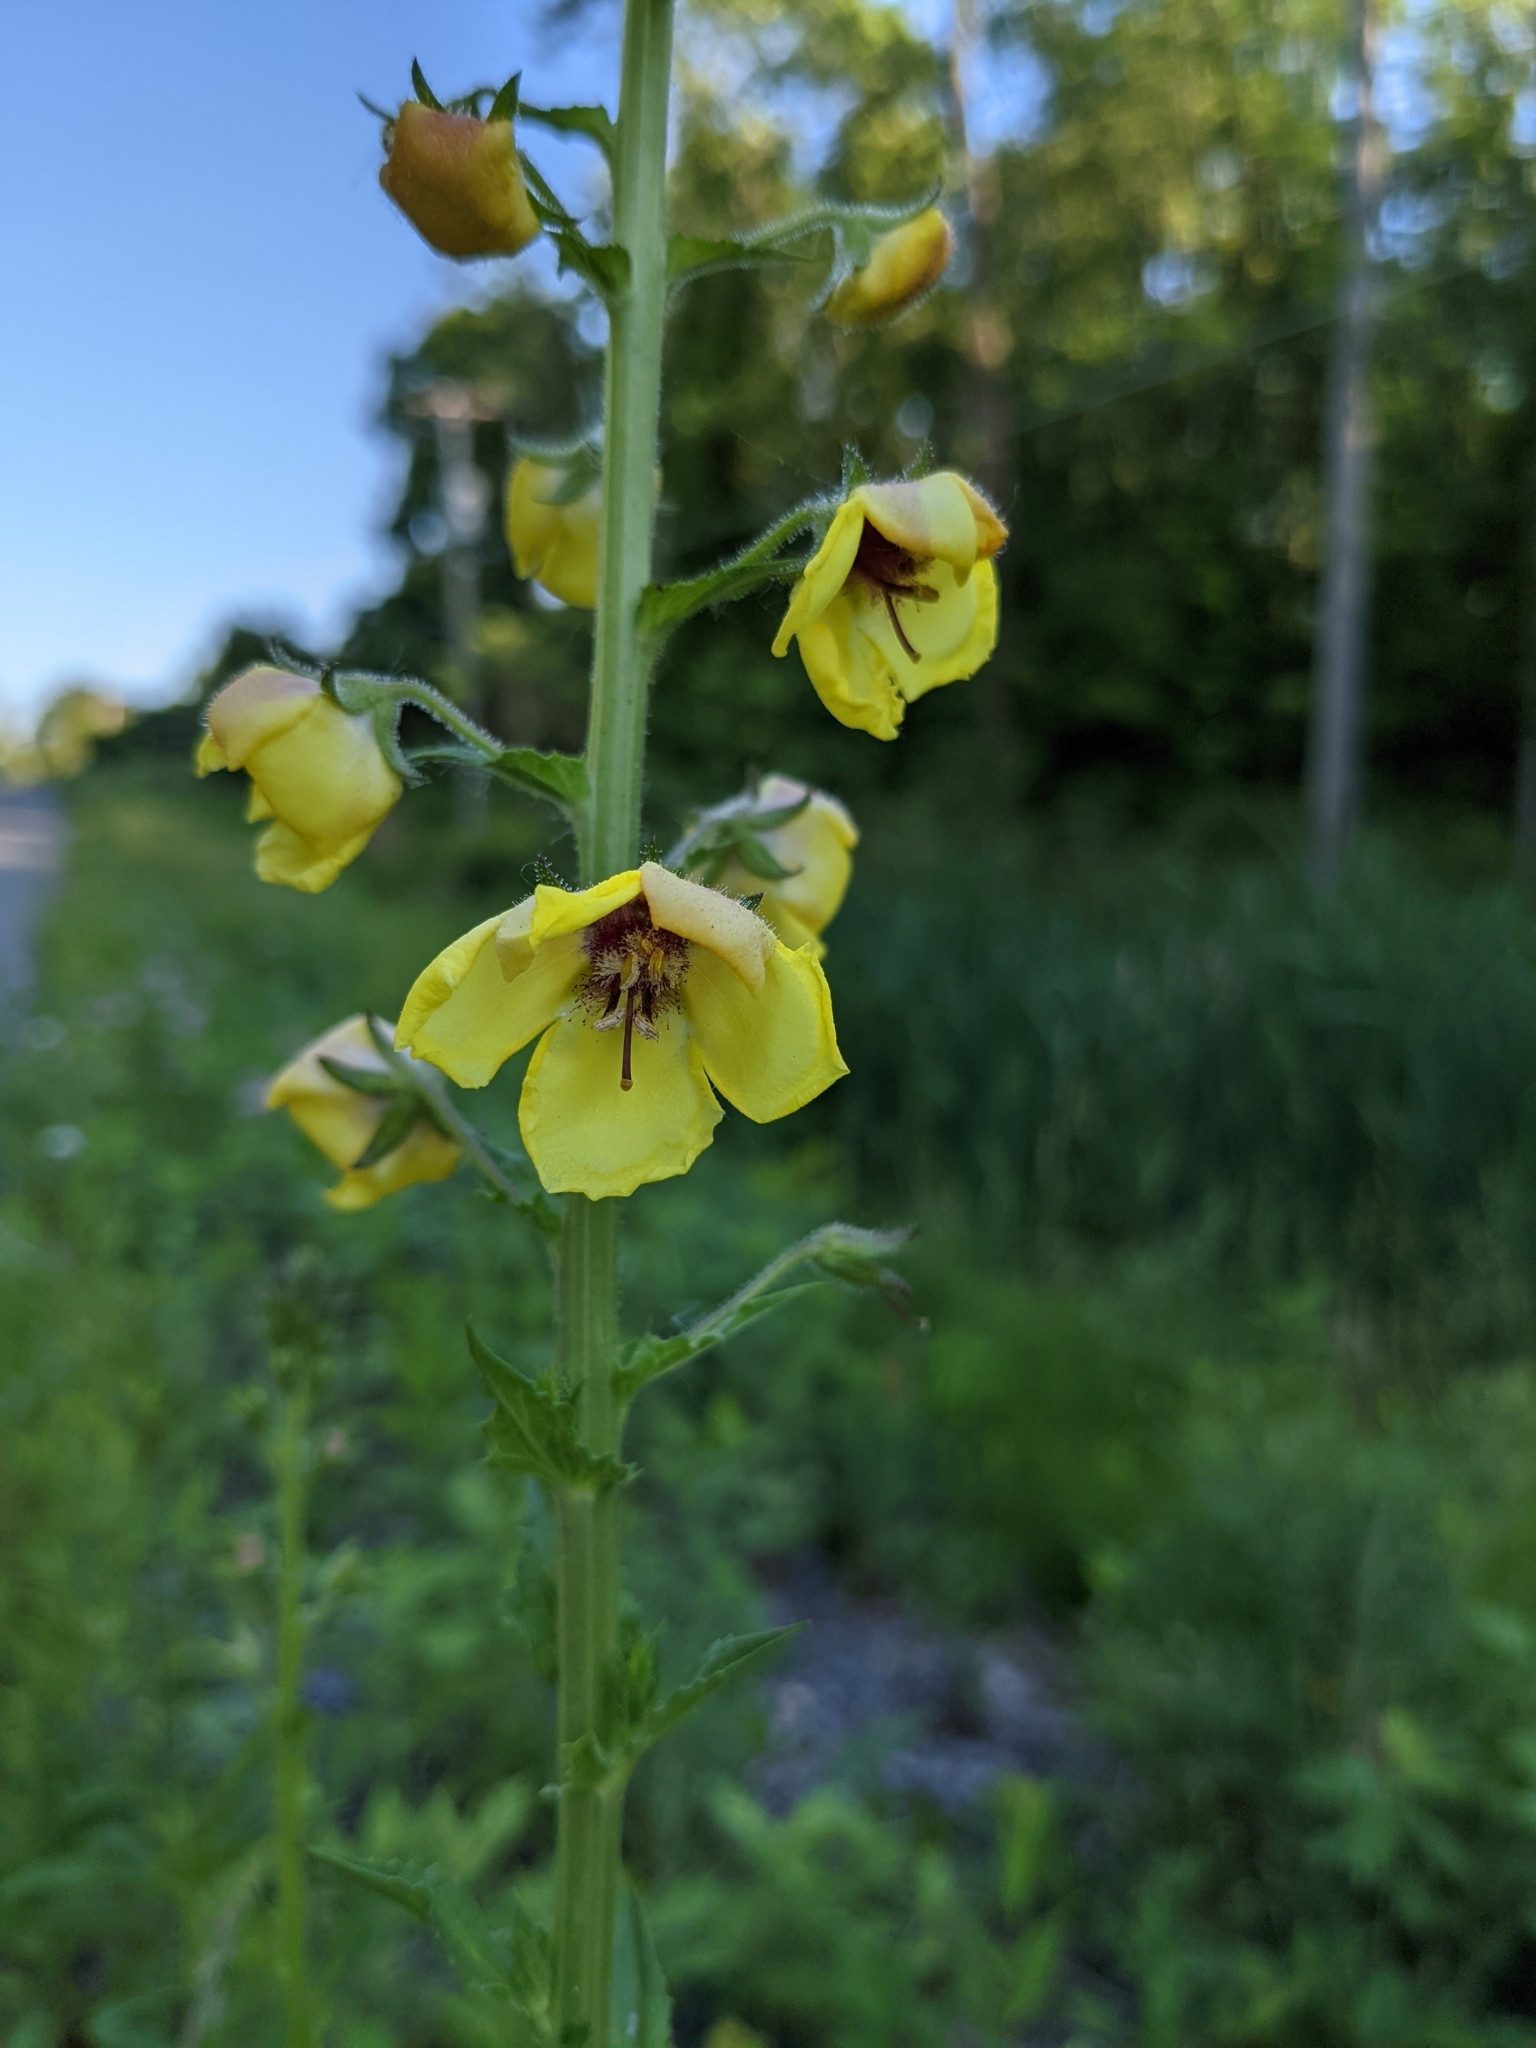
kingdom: Plantae
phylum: Tracheophyta
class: Magnoliopsida
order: Lamiales
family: Scrophulariaceae
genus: Verbascum
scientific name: Verbascum blattaria
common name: Moth mullein
